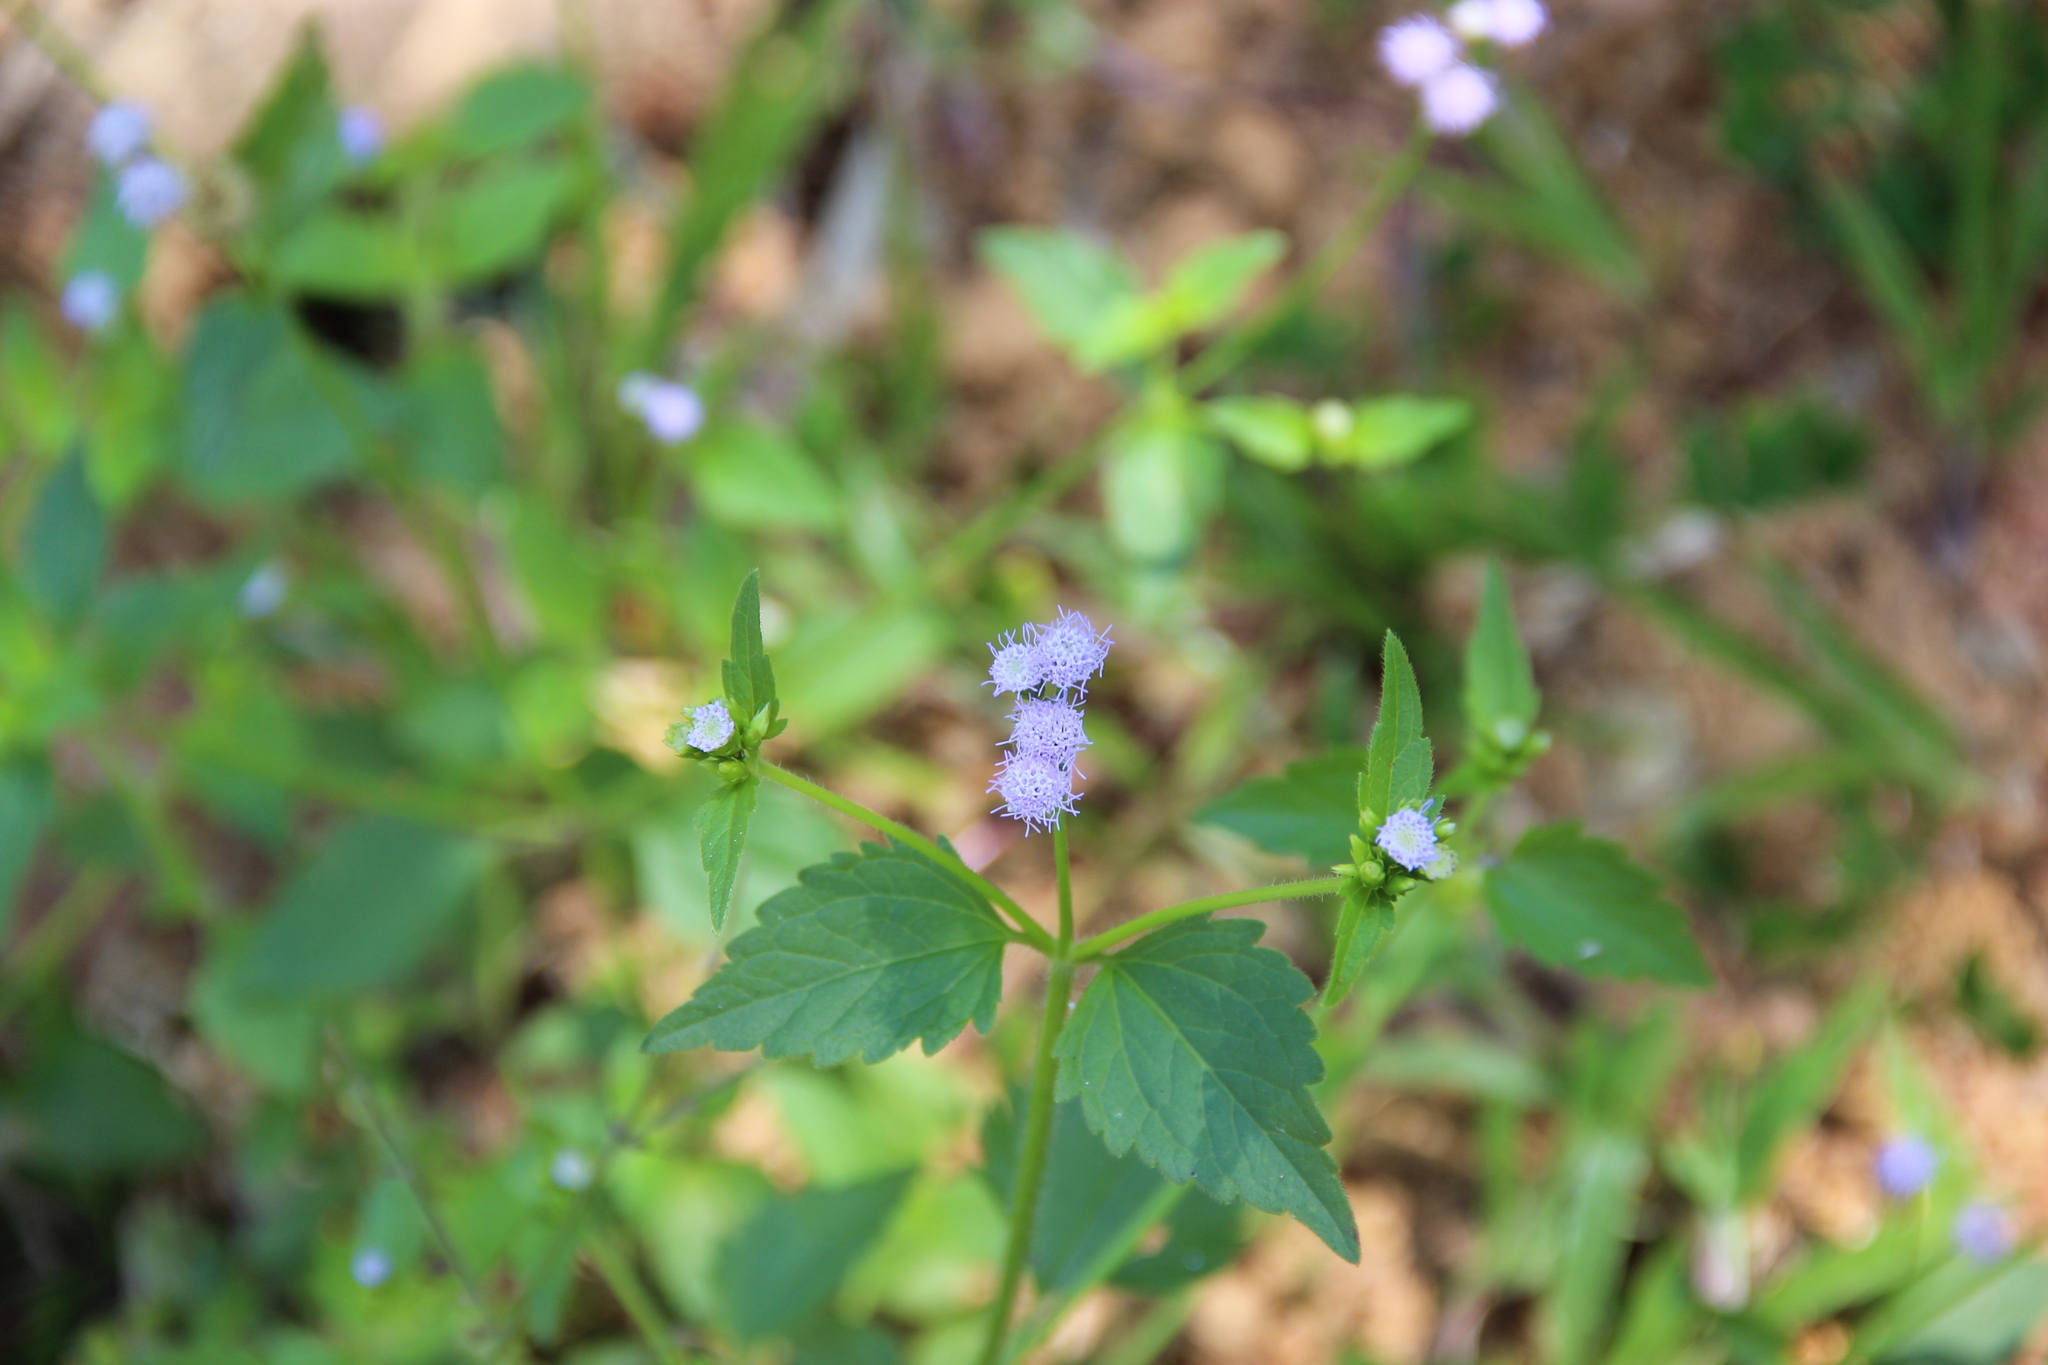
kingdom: Plantae
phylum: Tracheophyta
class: Magnoliopsida
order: Asterales
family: Asteraceae
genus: Praxelis
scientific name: Praxelis clematidea
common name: Praxelis
